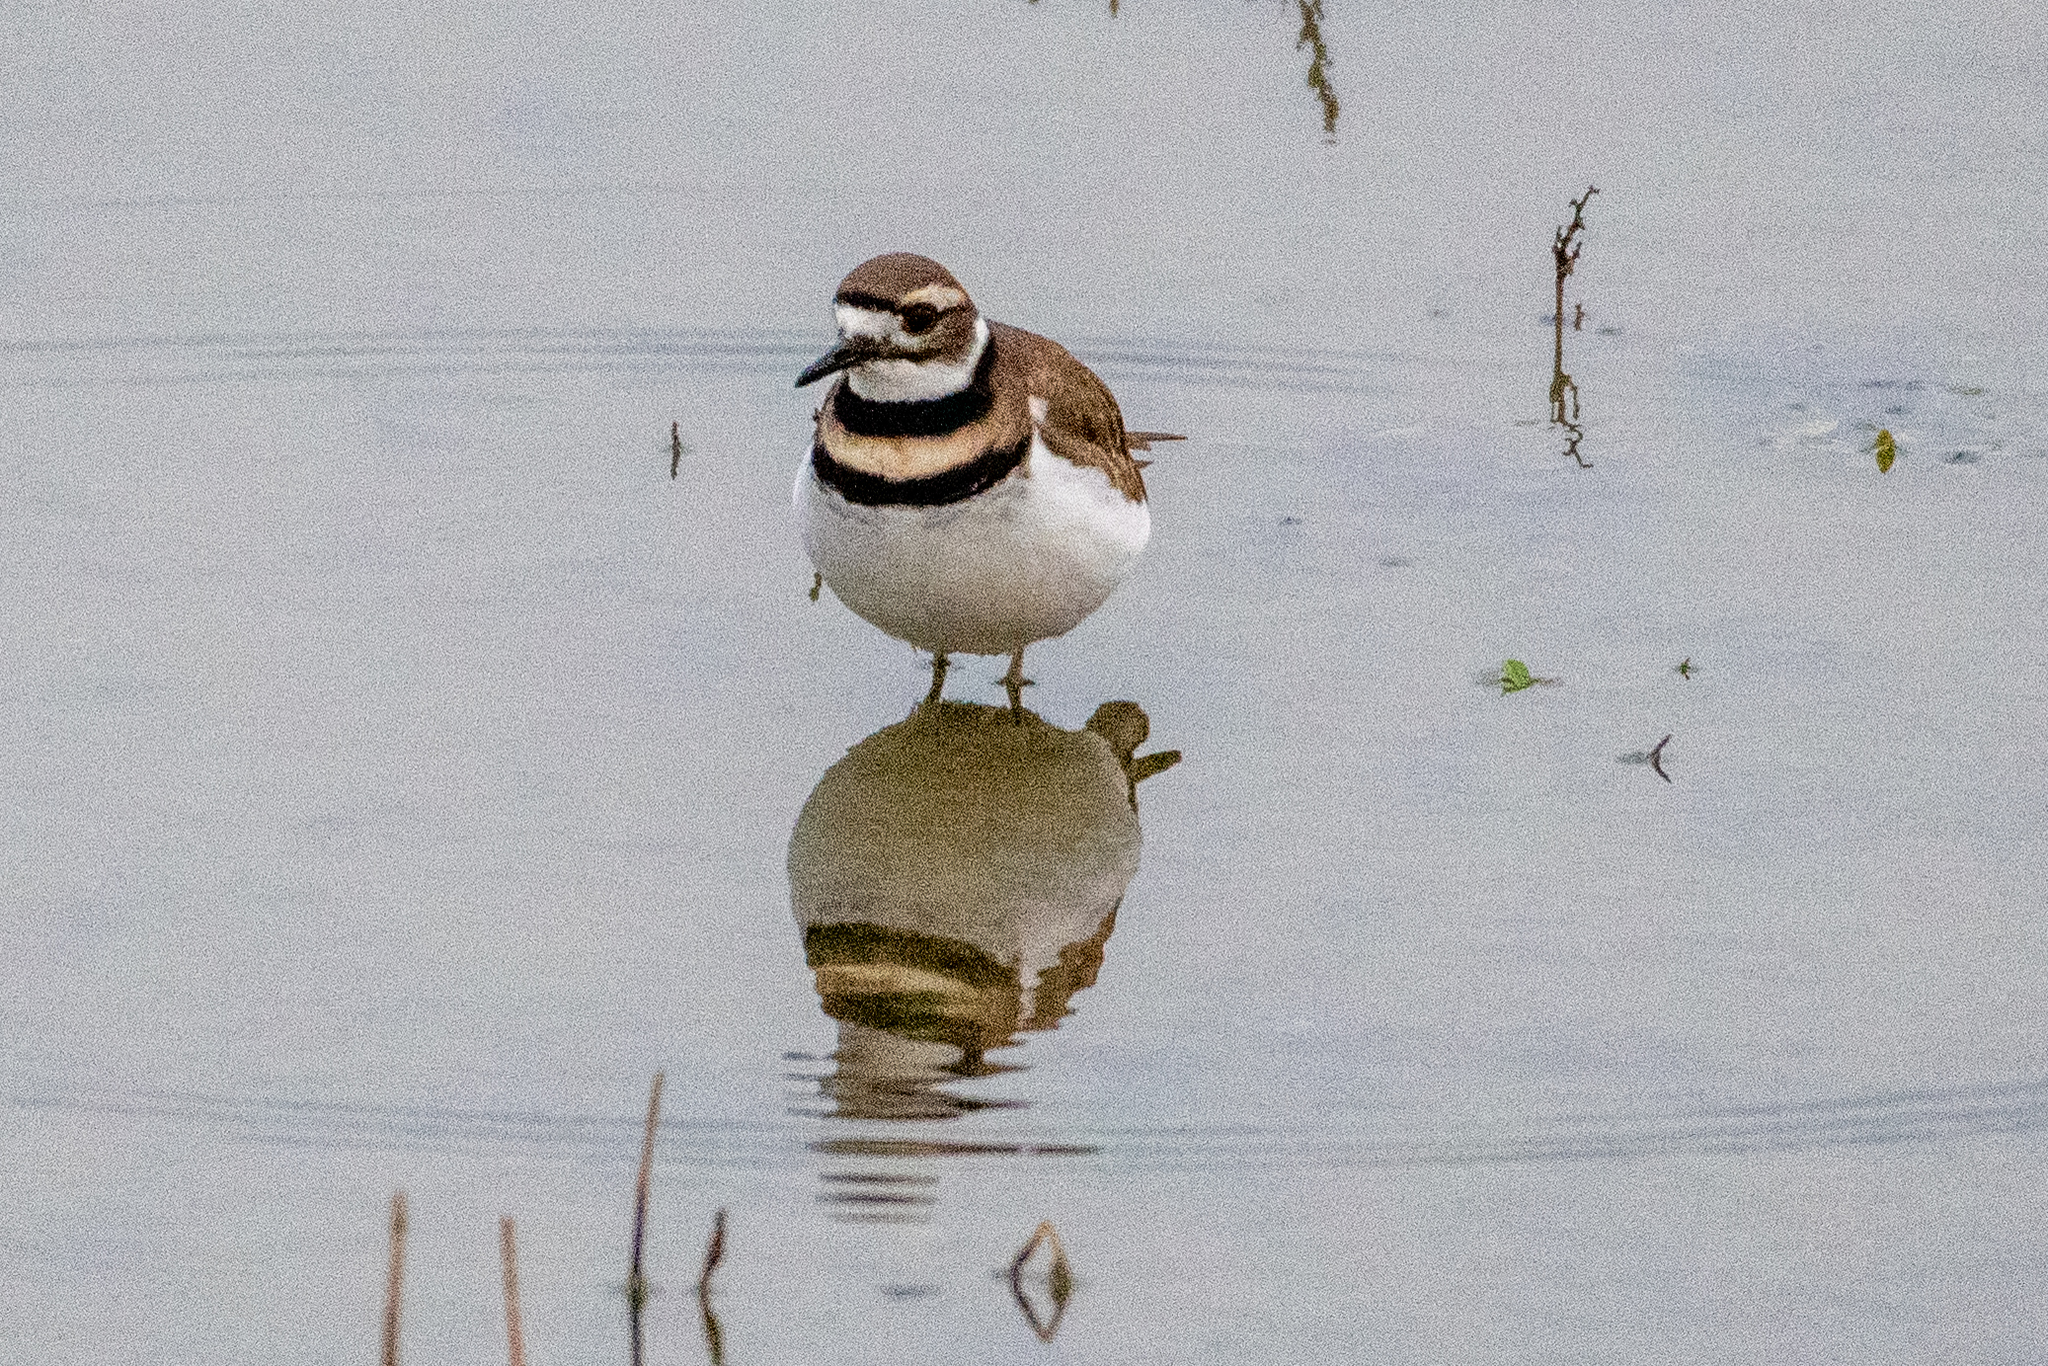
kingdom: Animalia
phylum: Chordata
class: Aves
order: Charadriiformes
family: Charadriidae
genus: Charadrius
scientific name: Charadrius vociferus
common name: Killdeer
